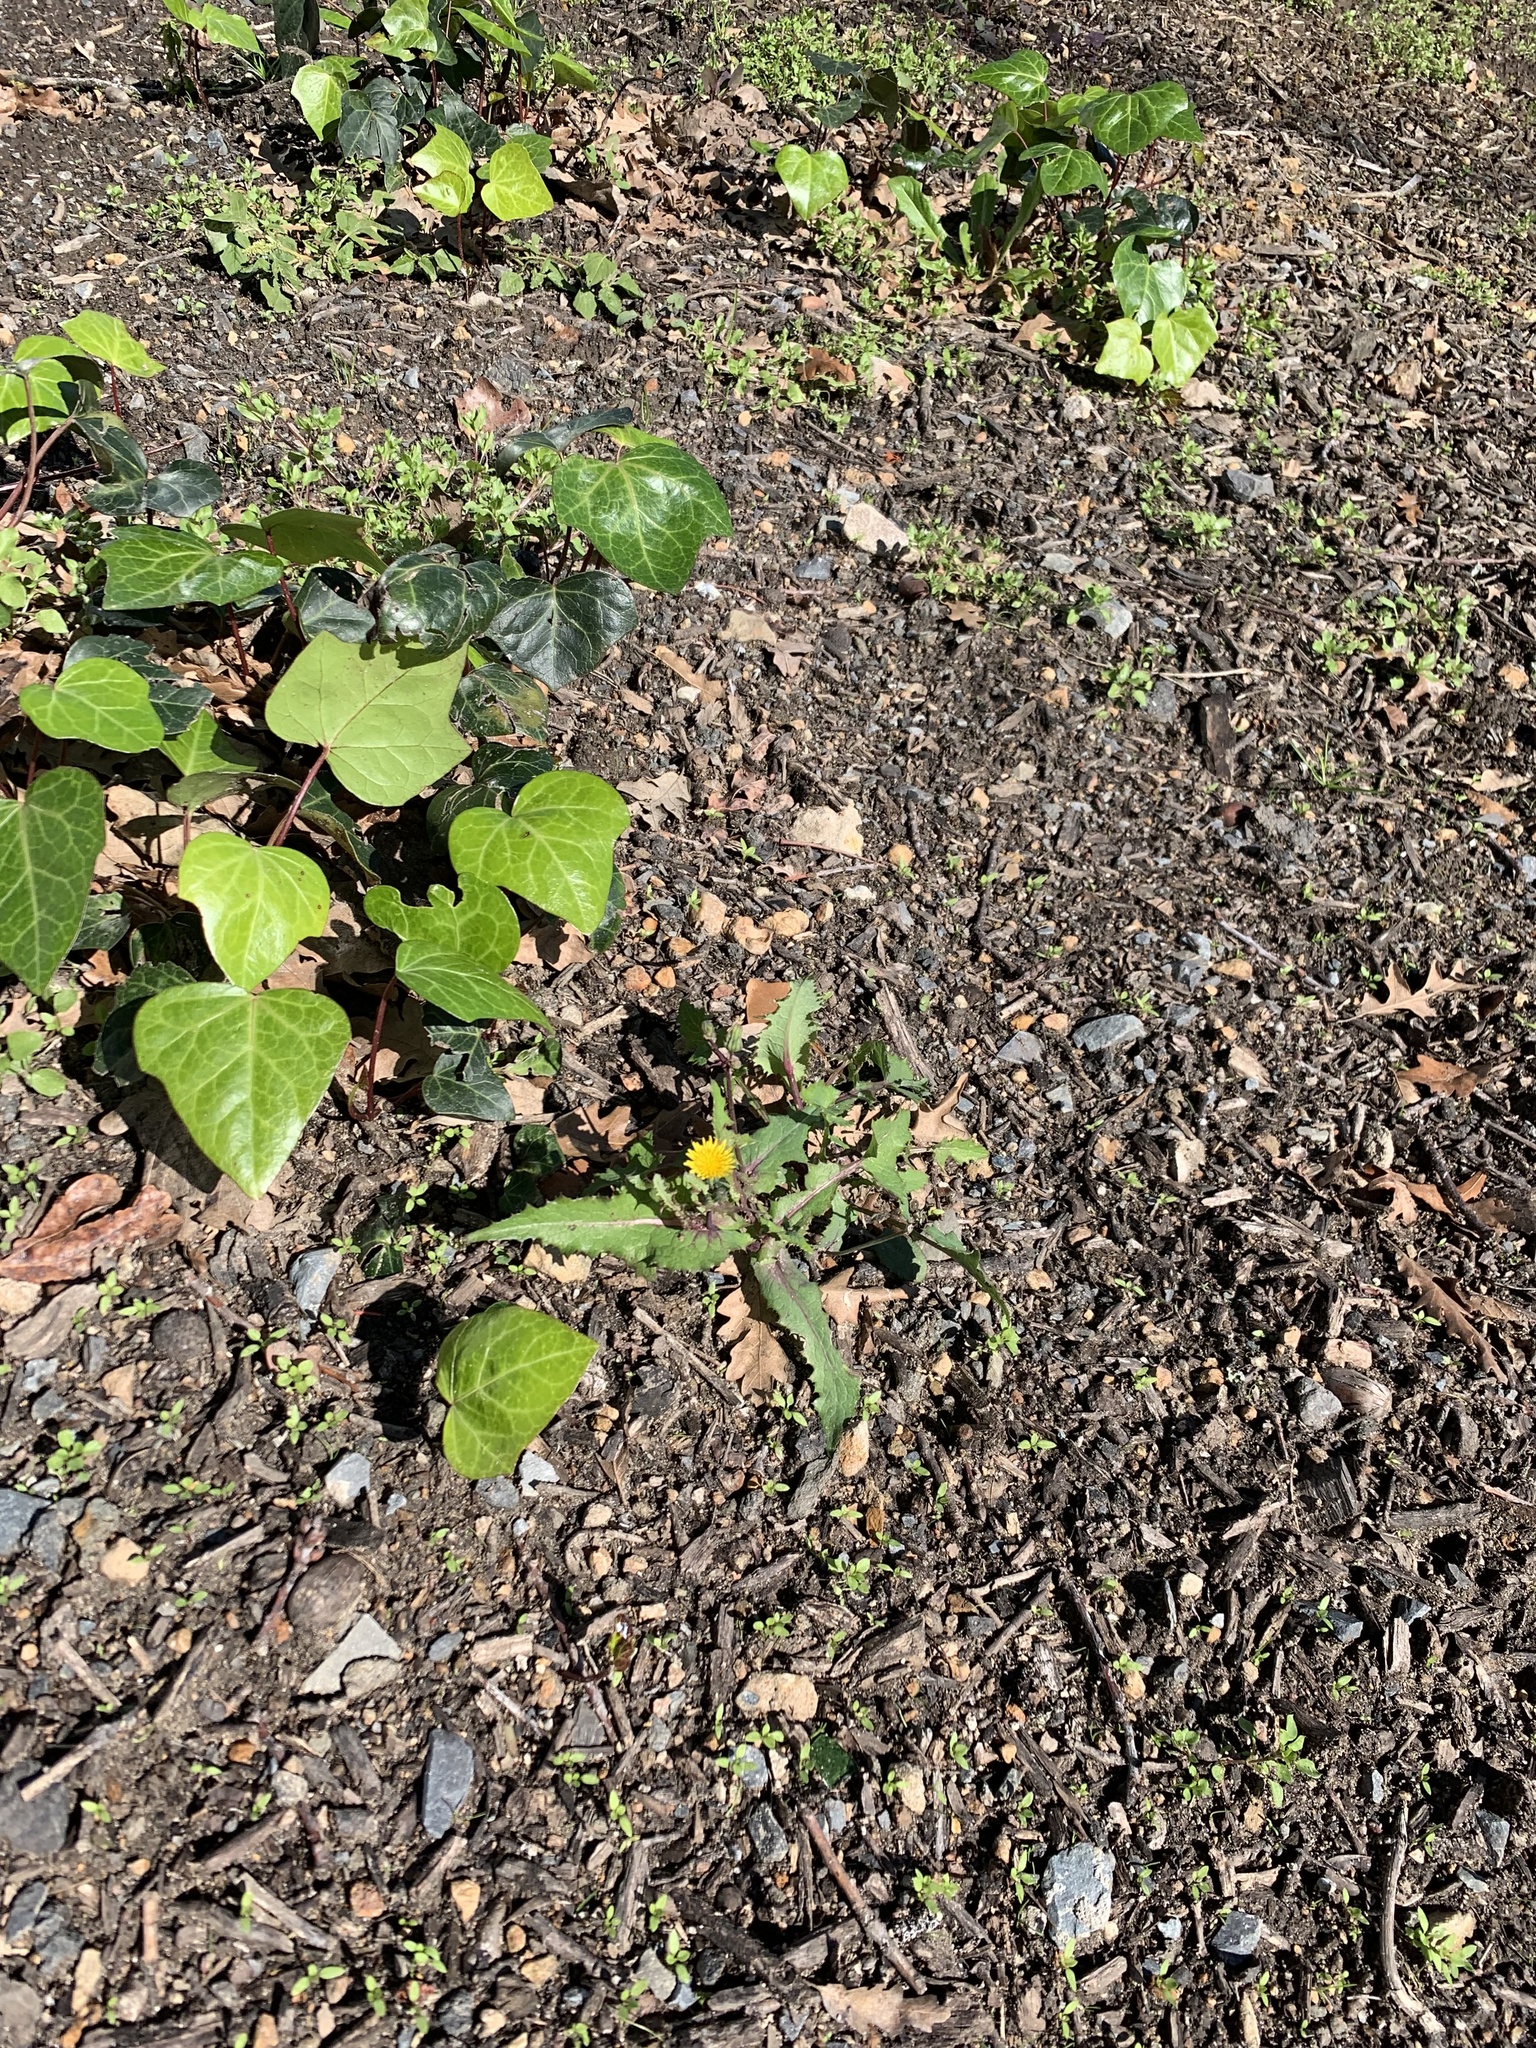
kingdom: Plantae
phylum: Tracheophyta
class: Magnoliopsida
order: Asterales
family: Asteraceae
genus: Sonchus
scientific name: Sonchus oleraceus
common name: Common sowthistle
